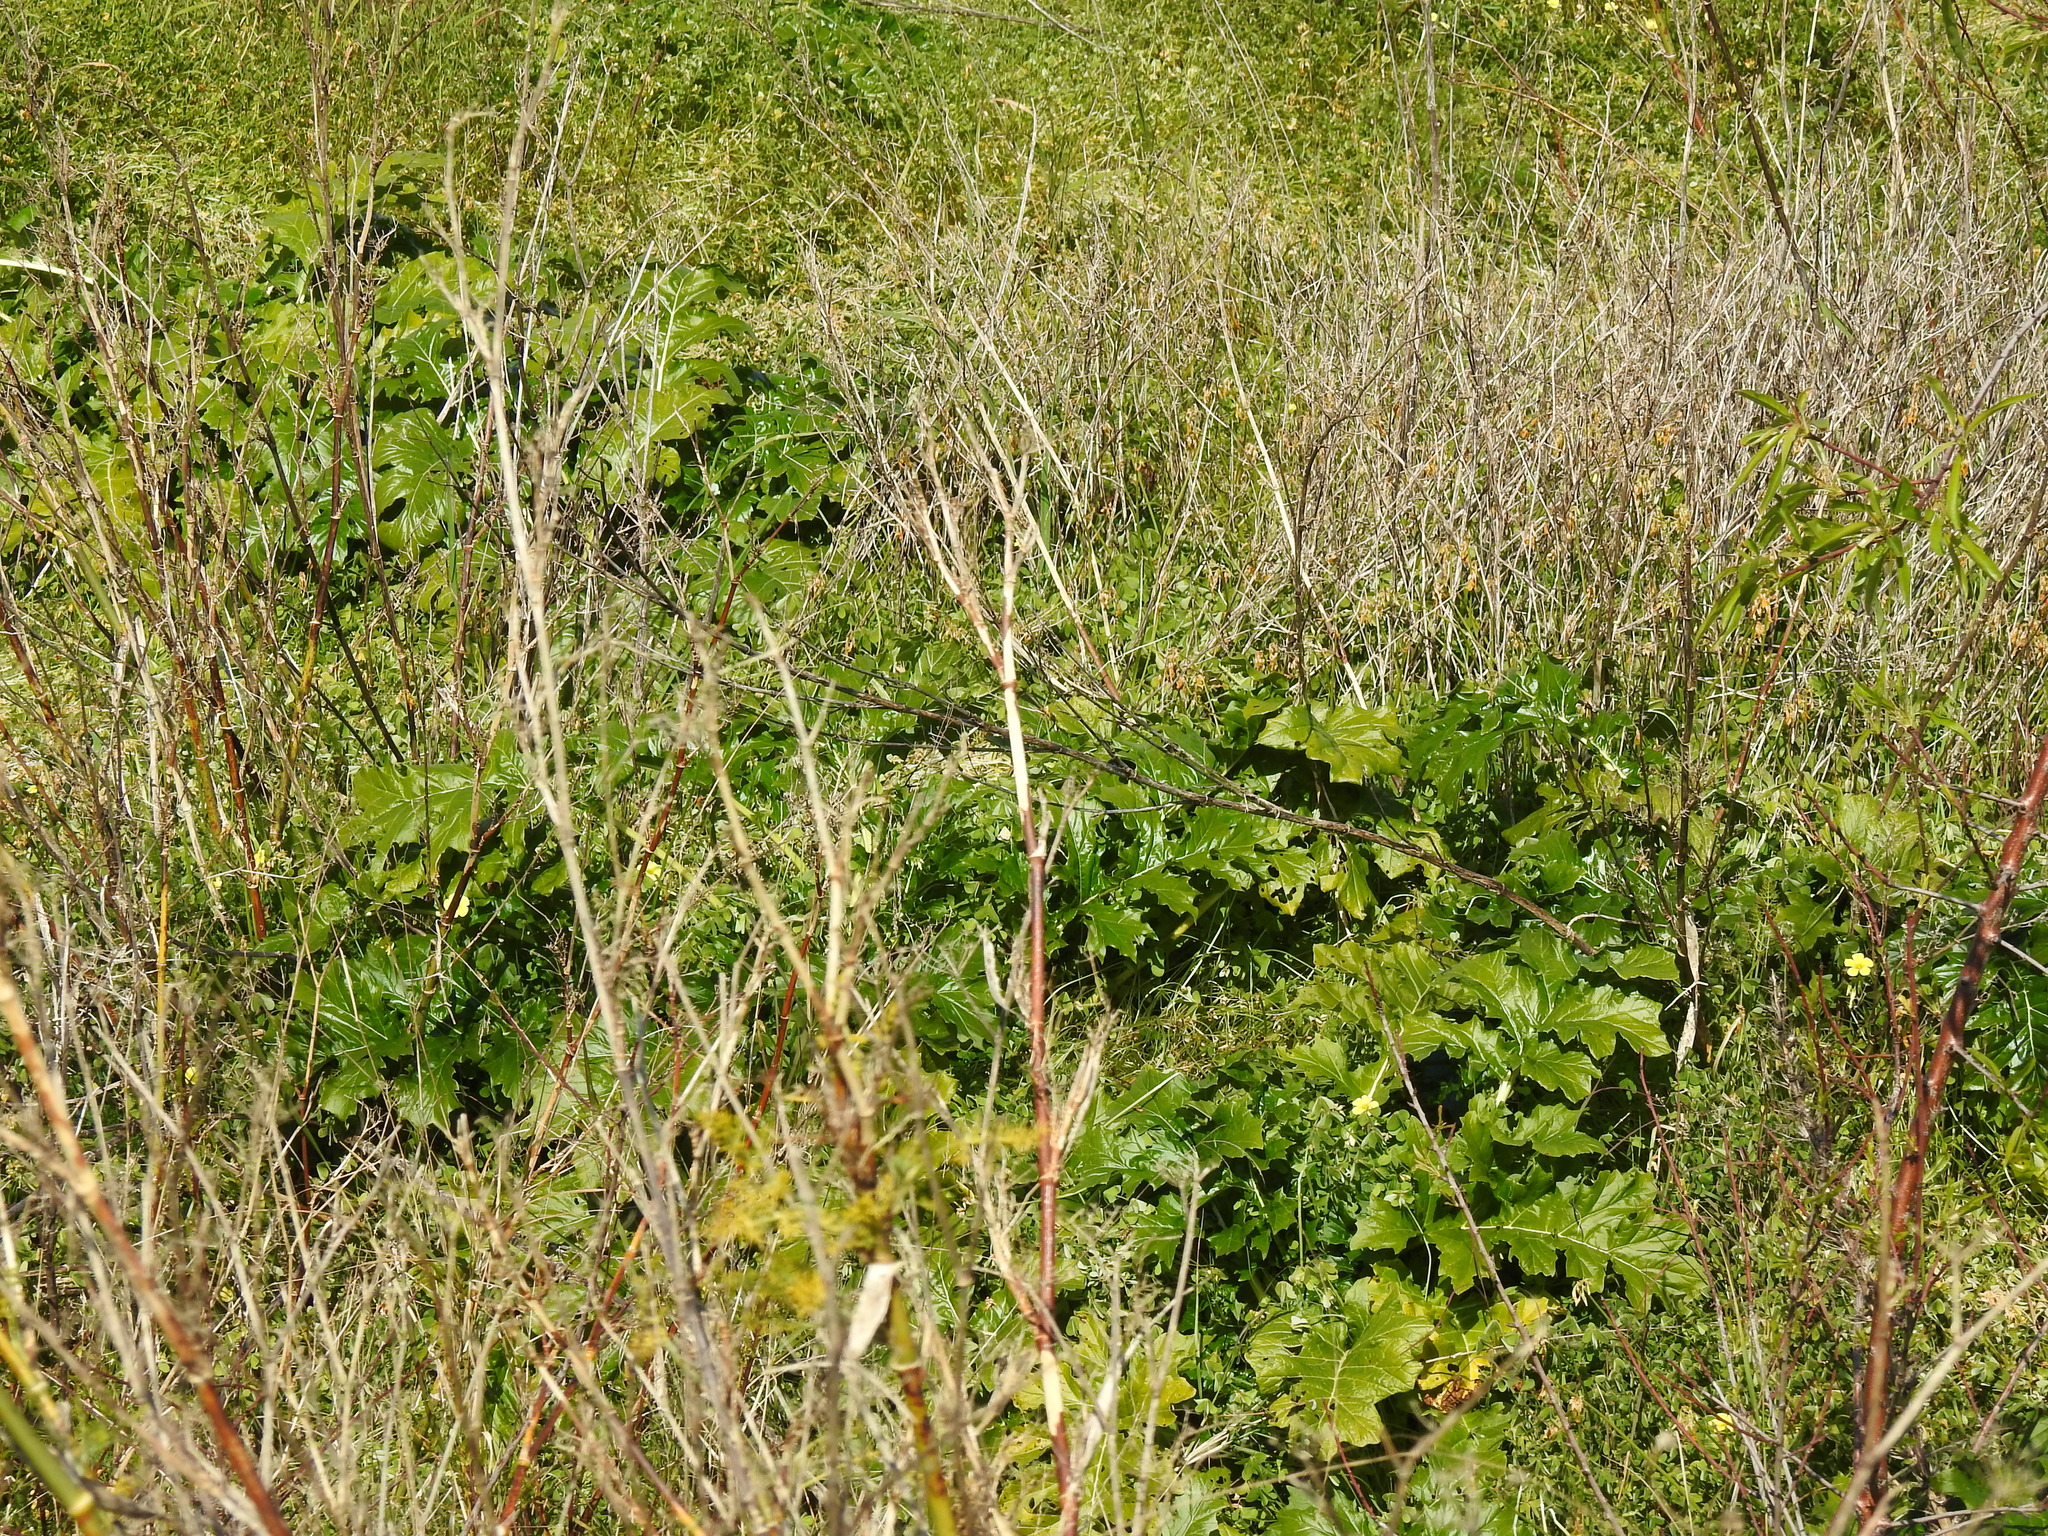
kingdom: Plantae
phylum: Tracheophyta
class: Magnoliopsida
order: Lamiales
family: Acanthaceae
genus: Acanthus
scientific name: Acanthus mollis
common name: Bear's-breech
